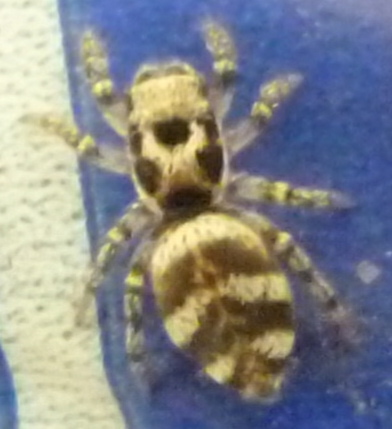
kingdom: Animalia
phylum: Arthropoda
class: Arachnida
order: Araneae
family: Salticidae
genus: Salticus
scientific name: Salticus scenicus
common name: Zebra jumper
